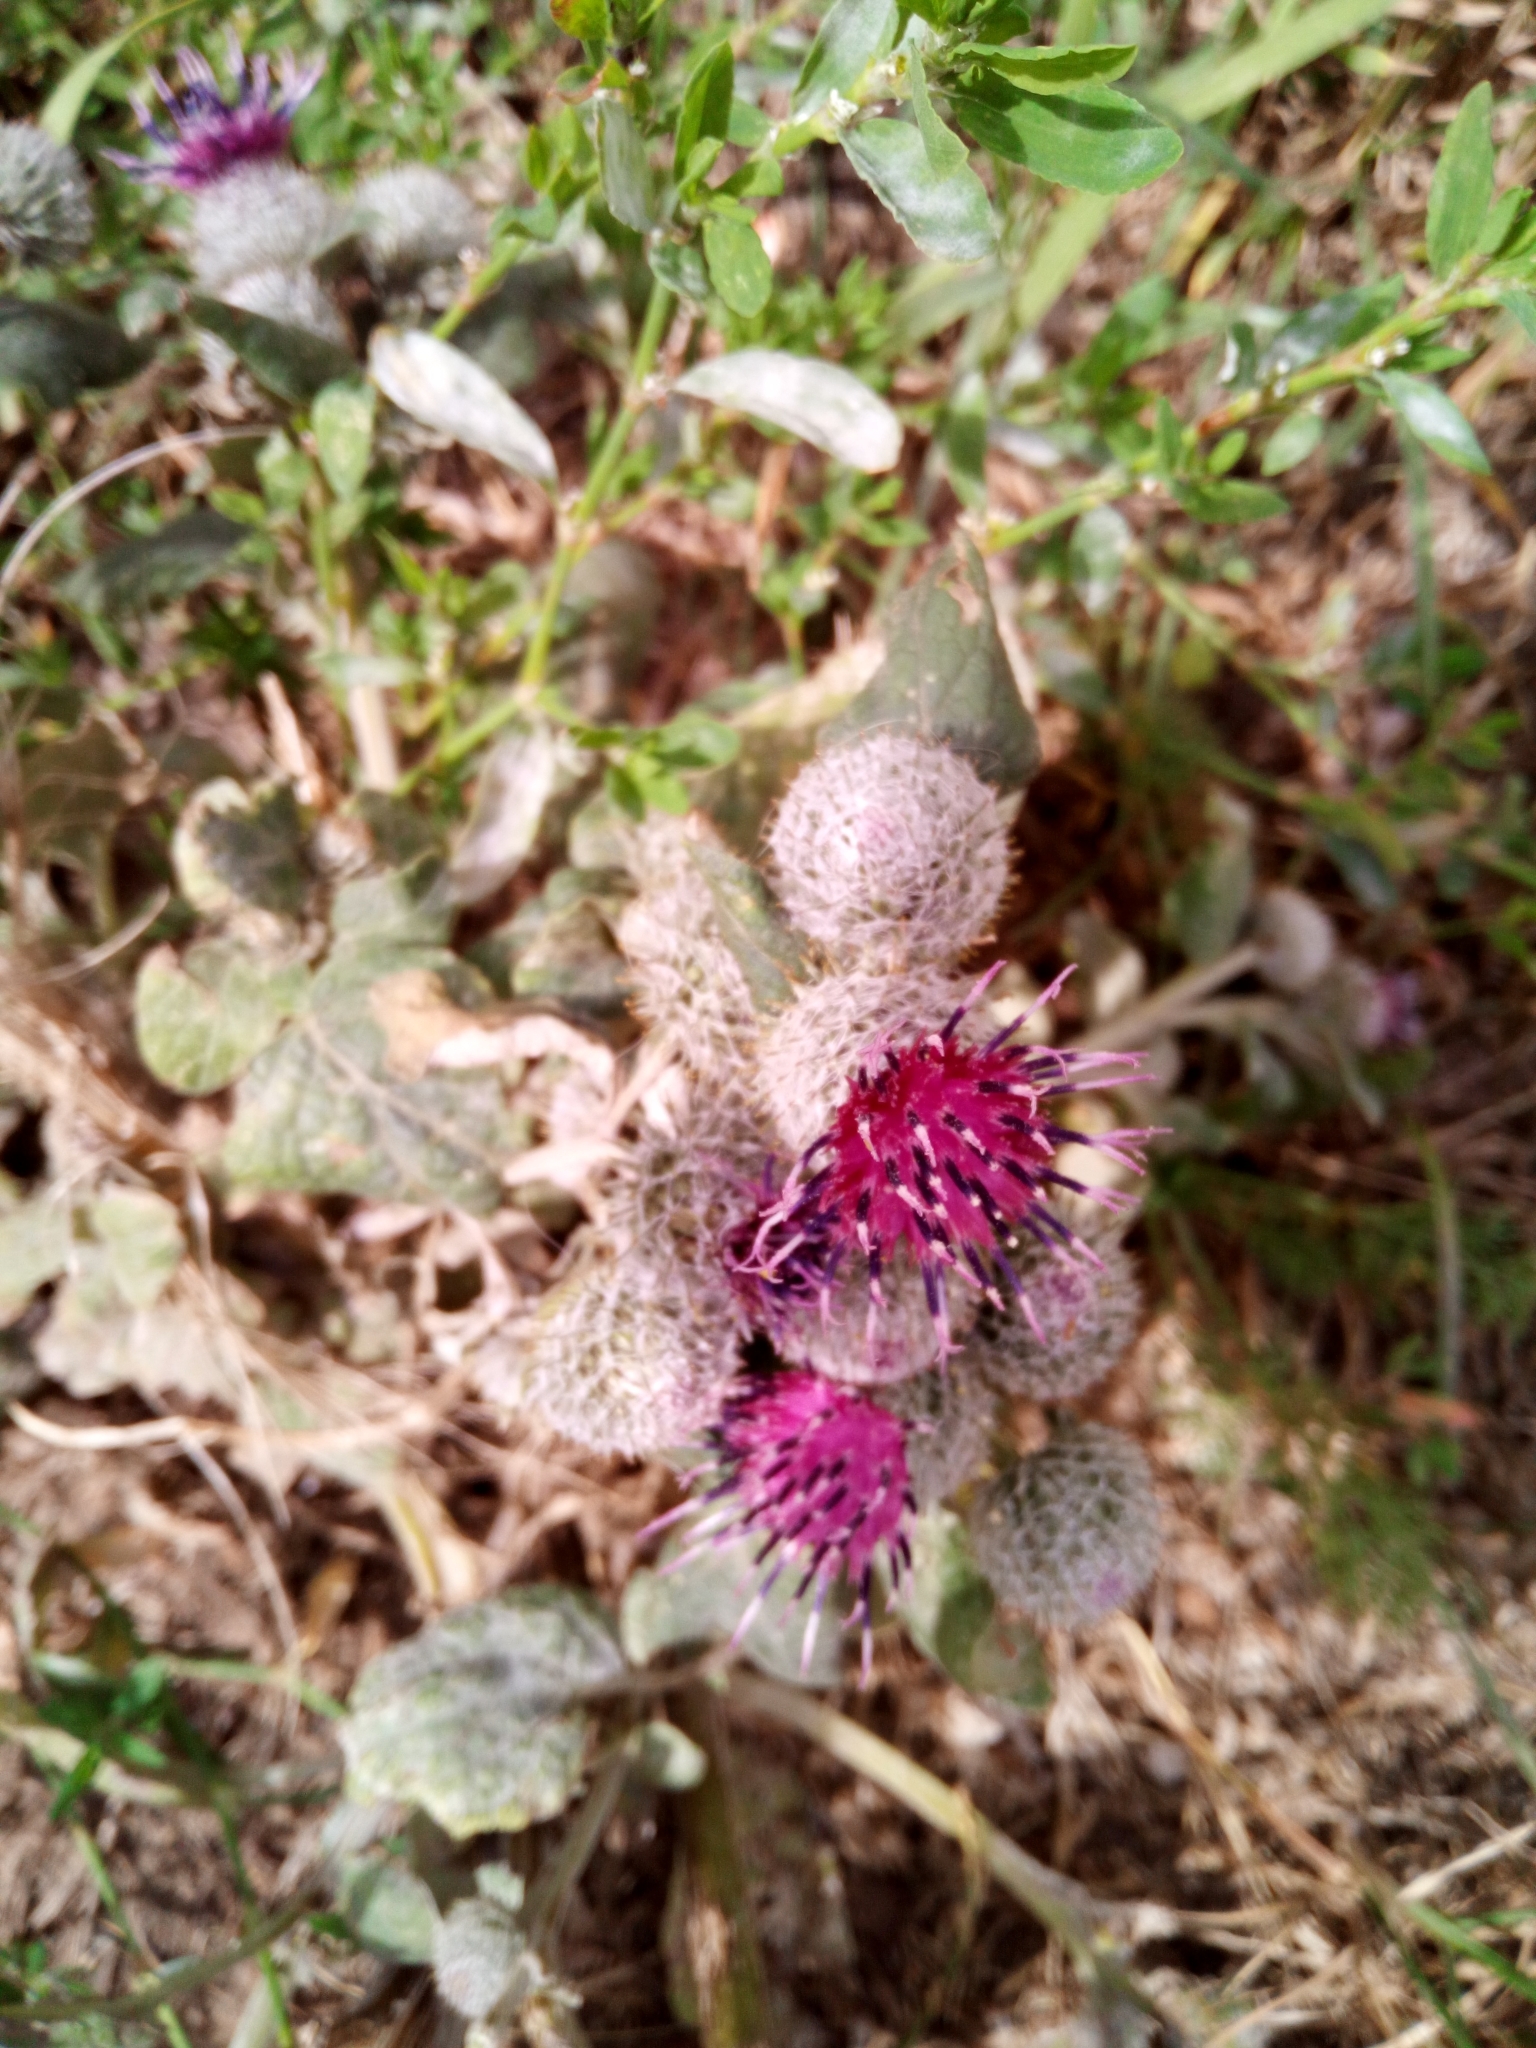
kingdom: Plantae
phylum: Tracheophyta
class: Magnoliopsida
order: Asterales
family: Asteraceae
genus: Arctium
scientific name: Arctium tomentosum
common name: Woolly burdock
